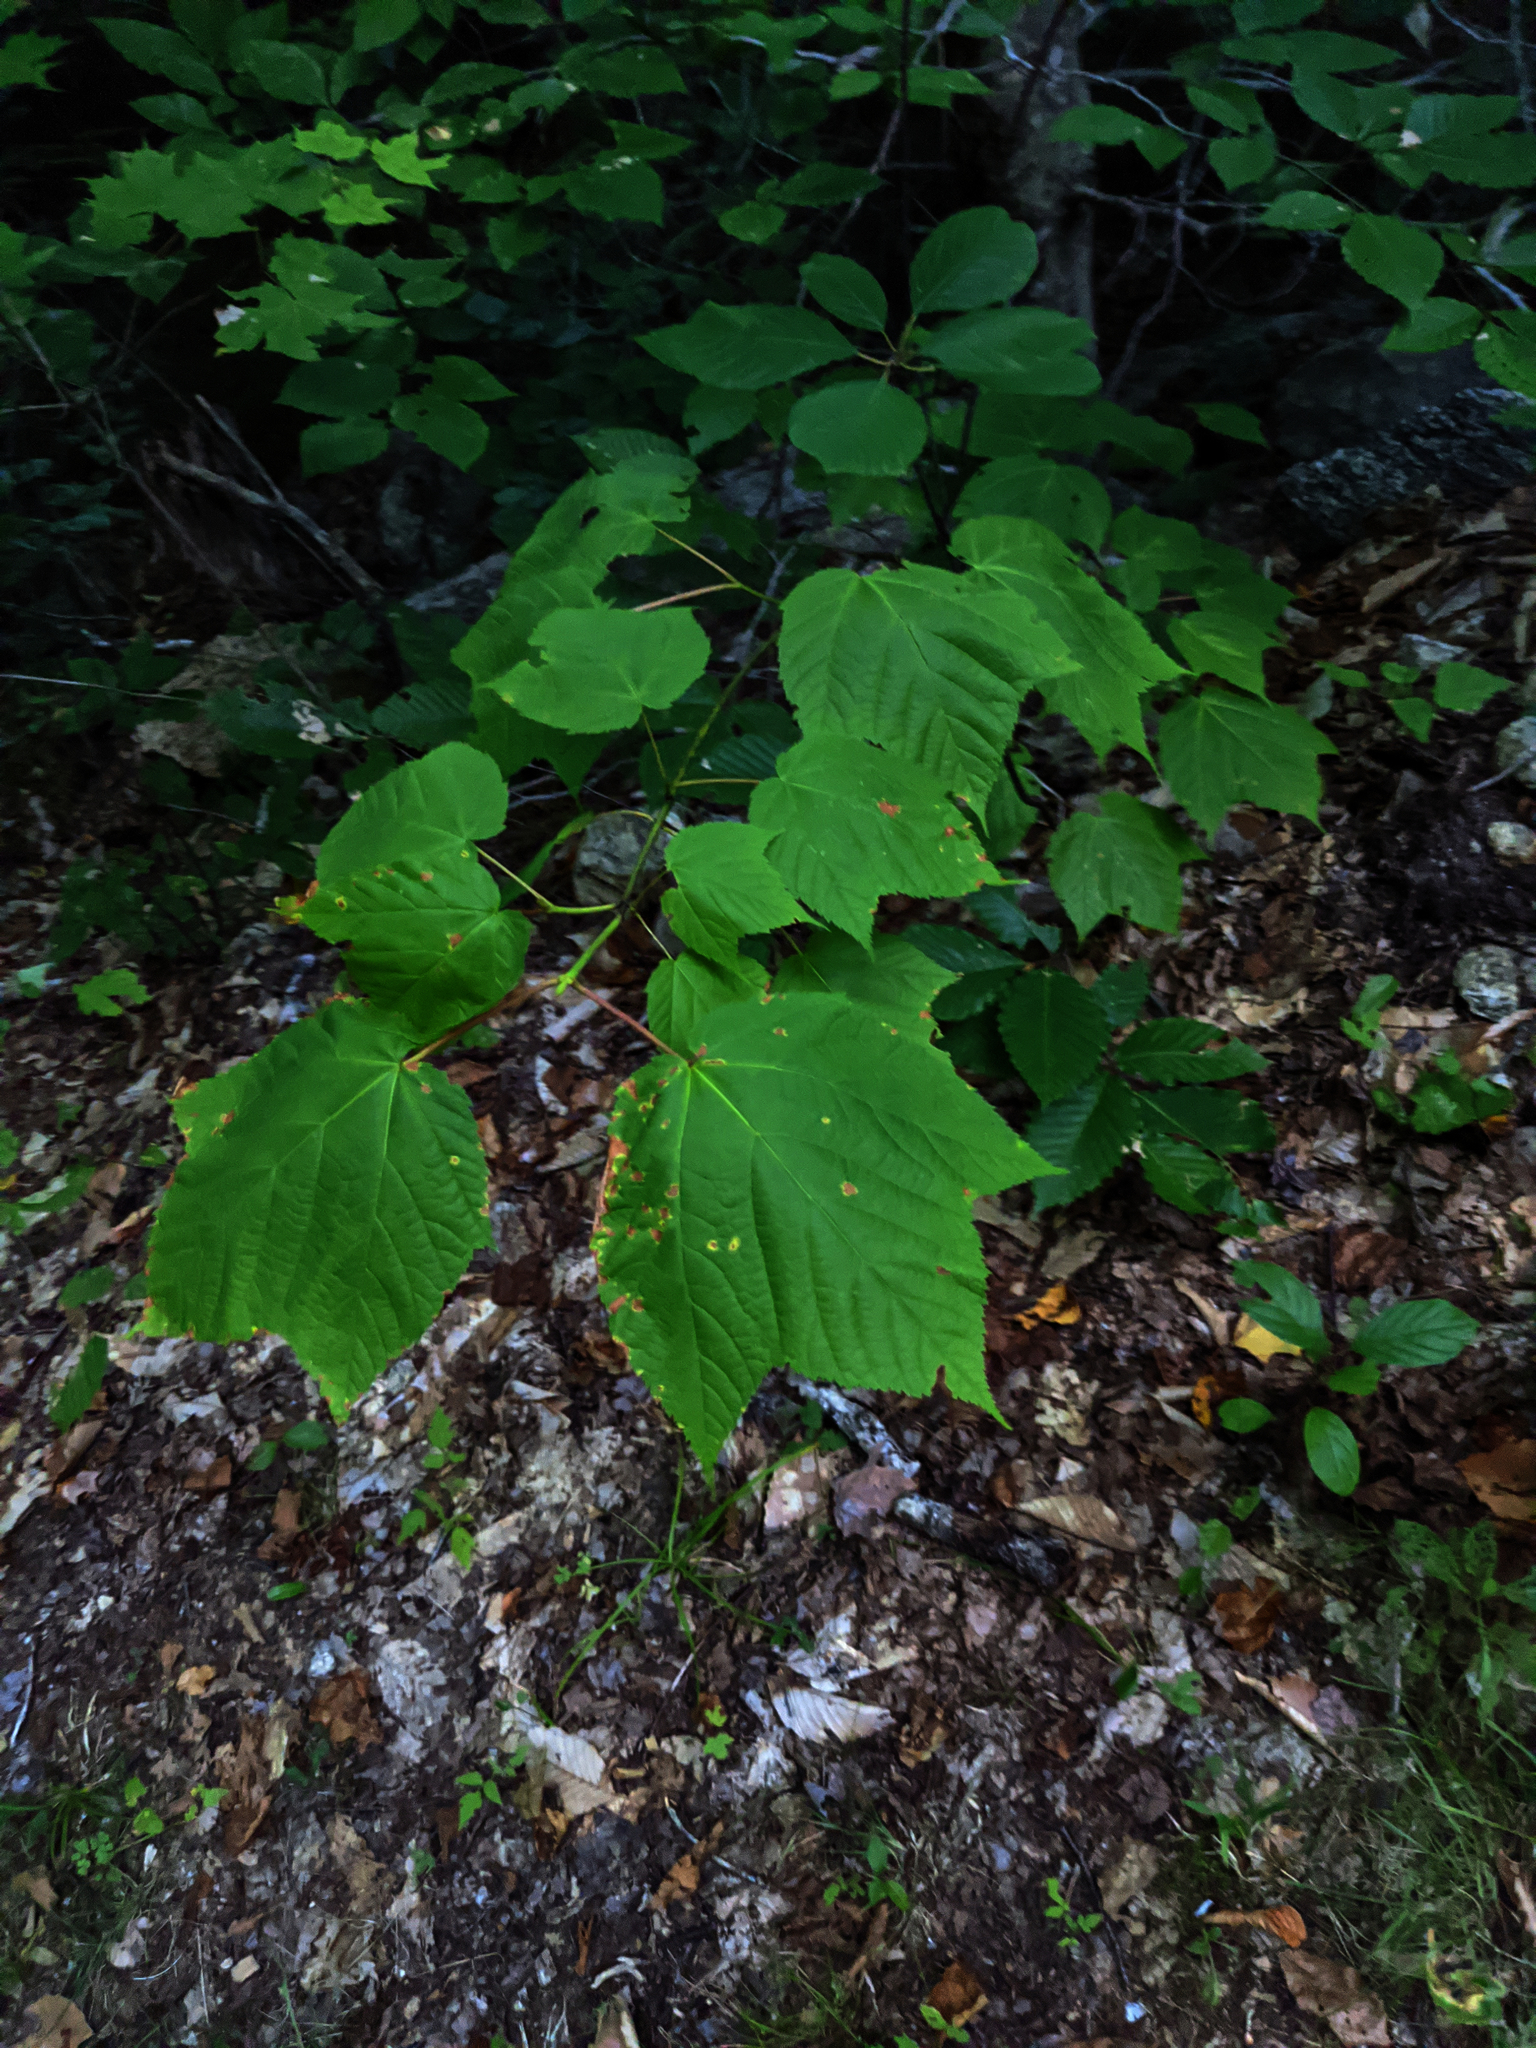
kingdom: Plantae
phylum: Tracheophyta
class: Magnoliopsida
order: Sapindales
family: Sapindaceae
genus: Acer
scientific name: Acer pensylvanicum
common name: Moosewood
